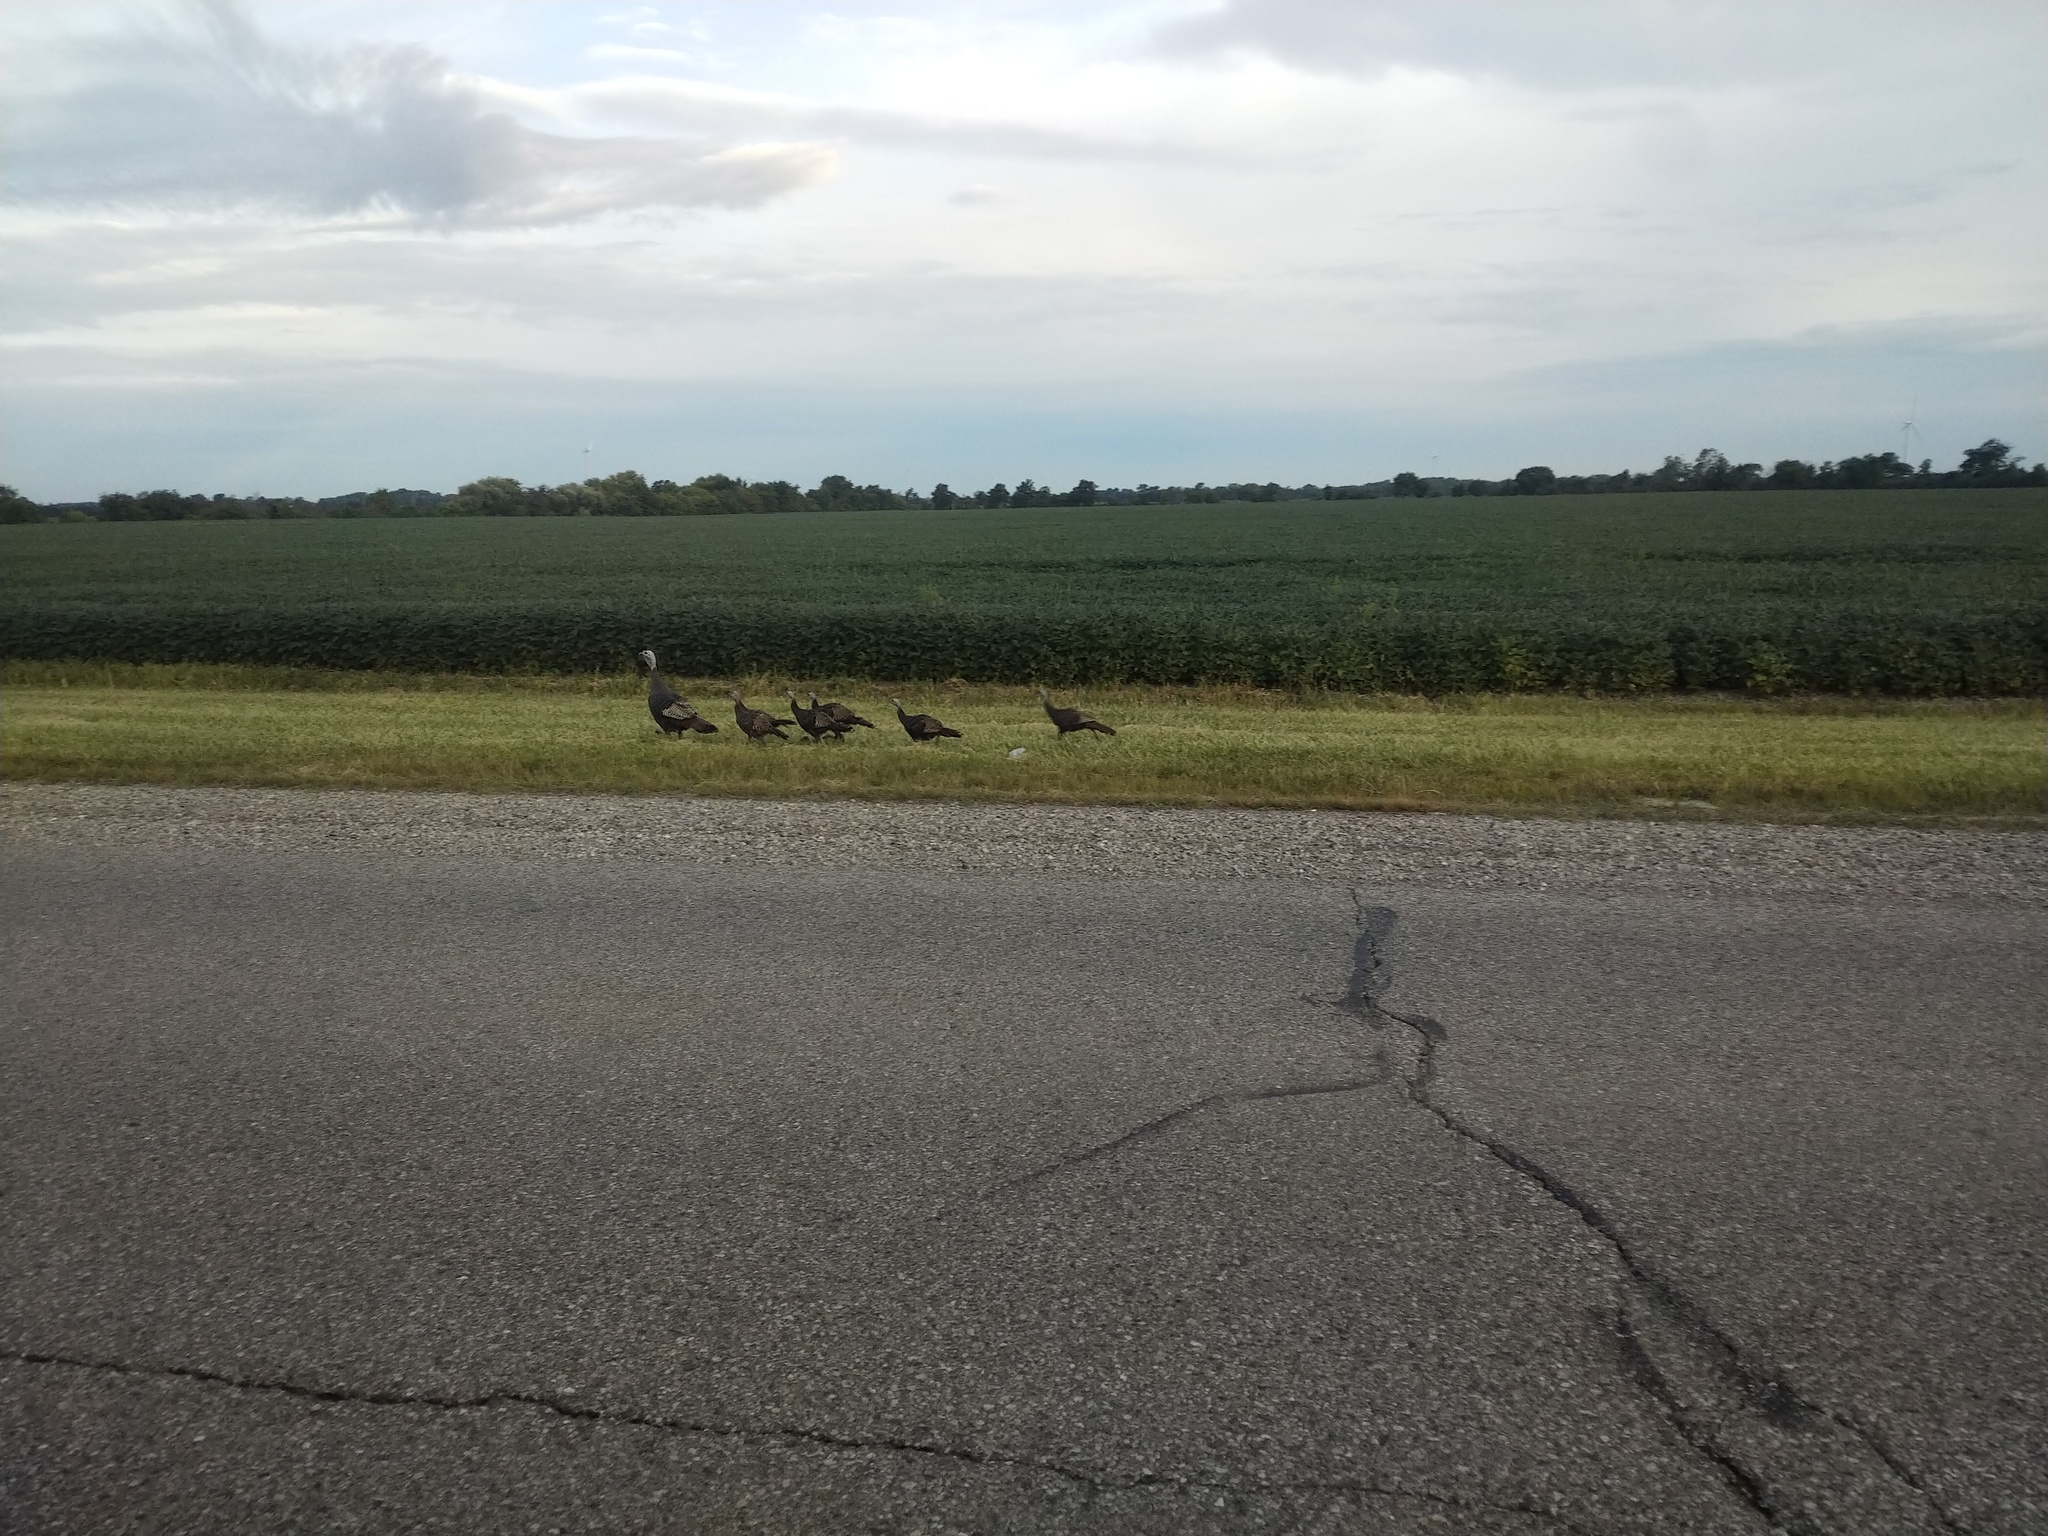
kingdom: Animalia
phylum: Chordata
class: Aves
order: Galliformes
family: Phasianidae
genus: Meleagris
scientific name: Meleagris gallopavo
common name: Wild turkey
